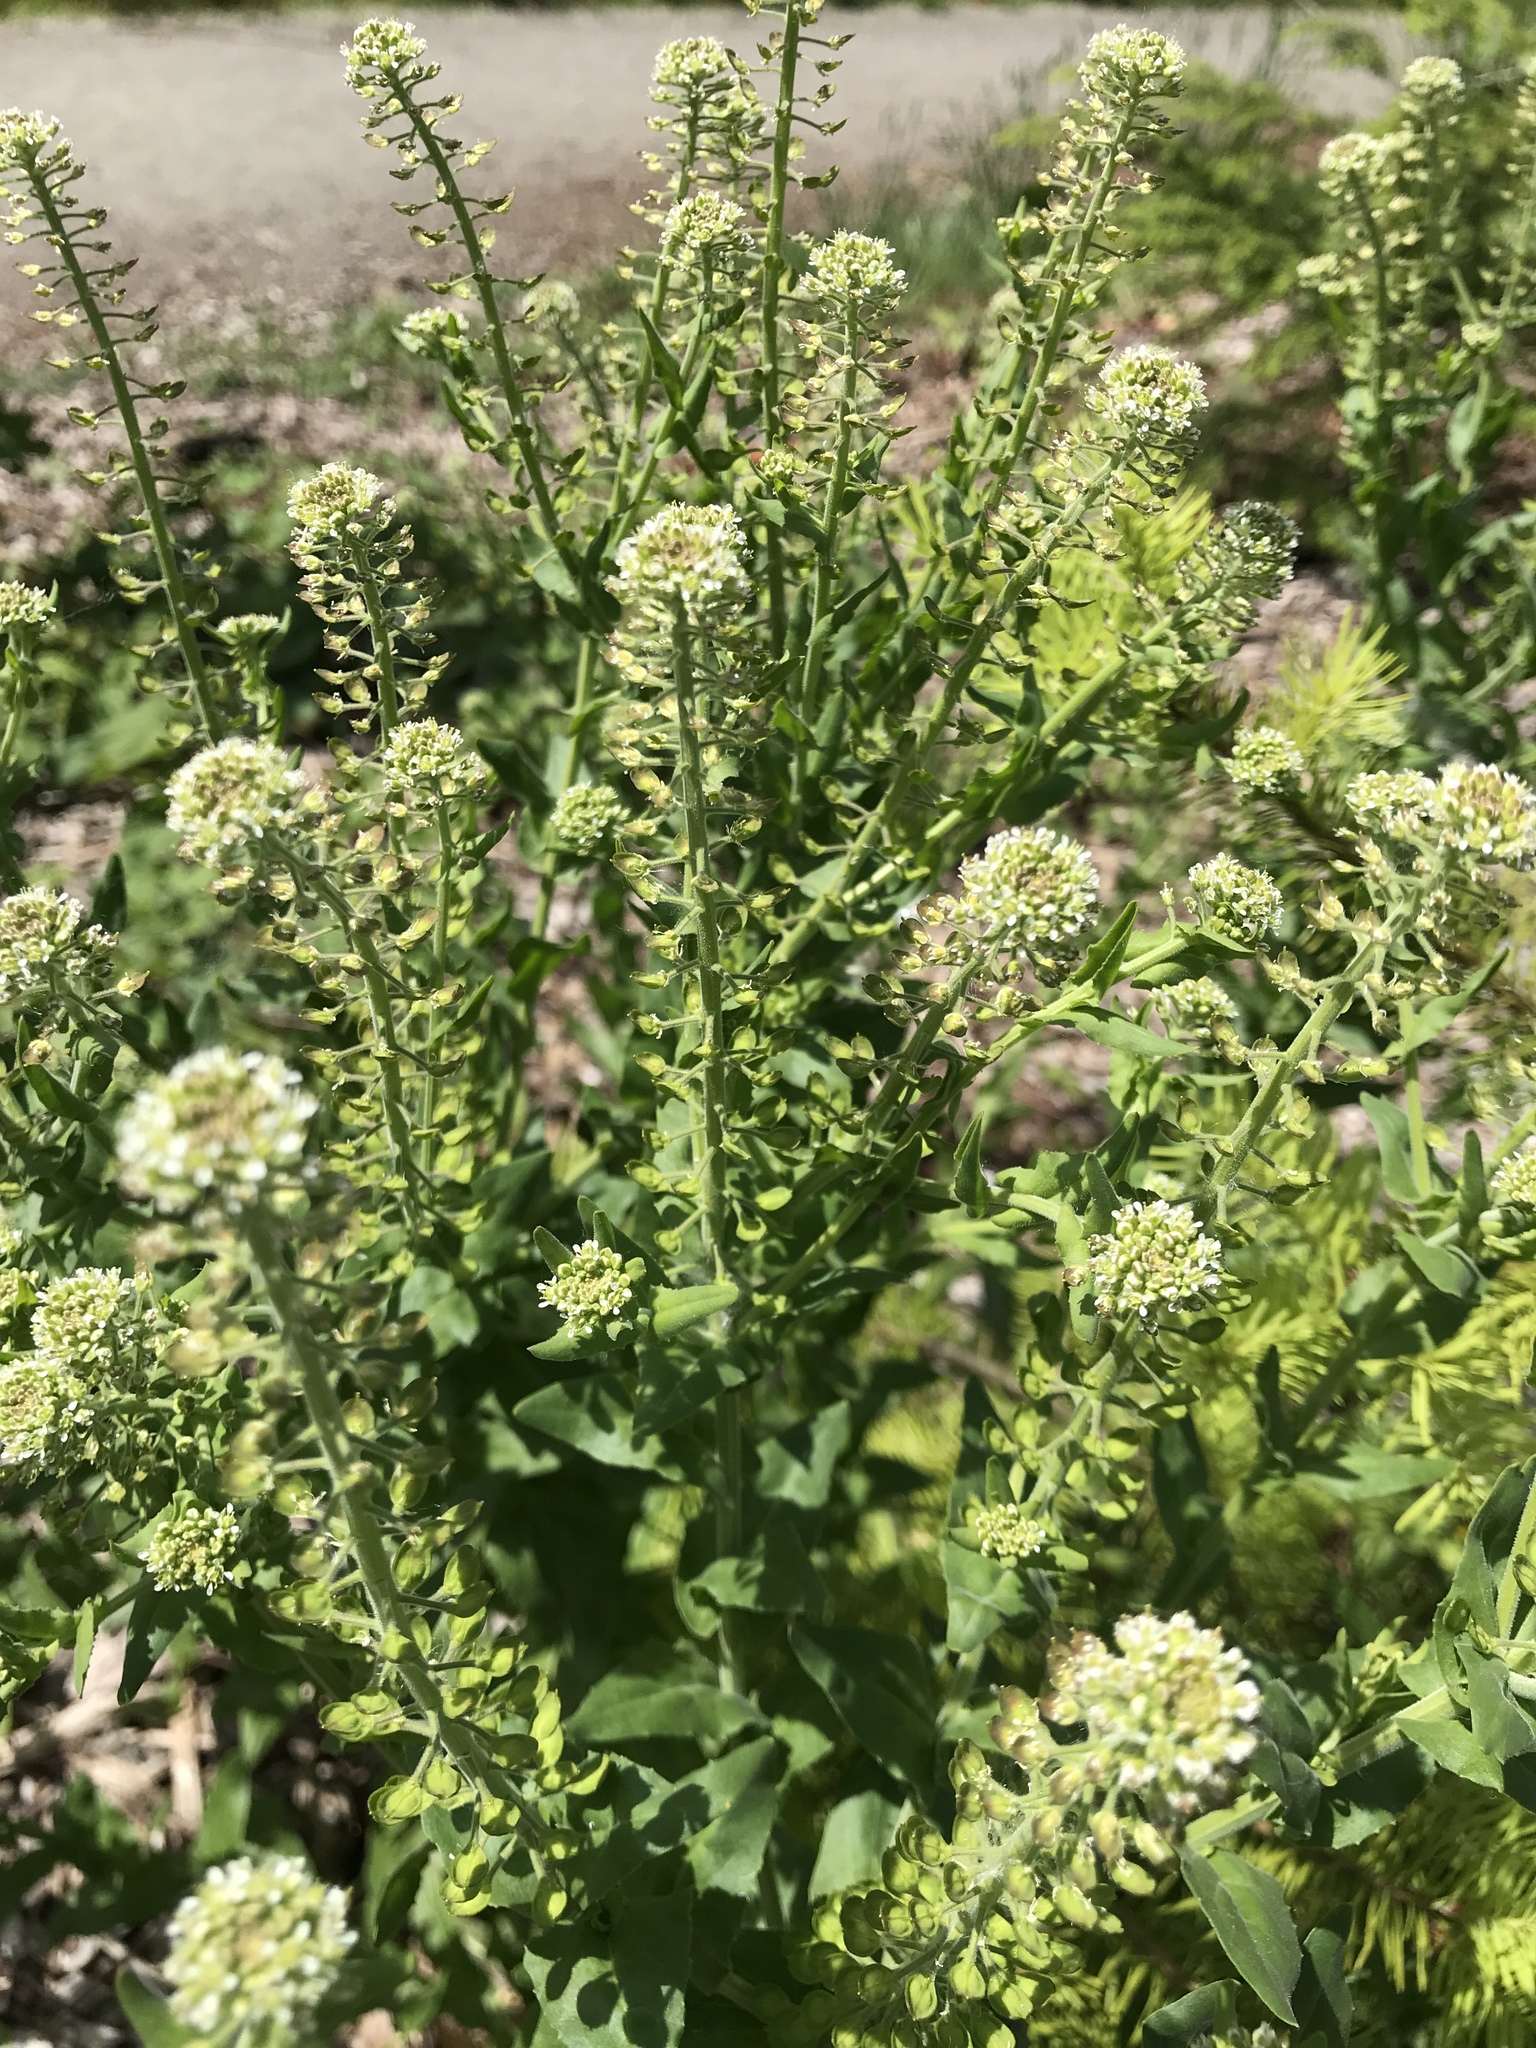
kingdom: Plantae
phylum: Tracheophyta
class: Magnoliopsida
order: Brassicales
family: Brassicaceae
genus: Lepidium
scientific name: Lepidium campestre
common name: Field pepperwort
